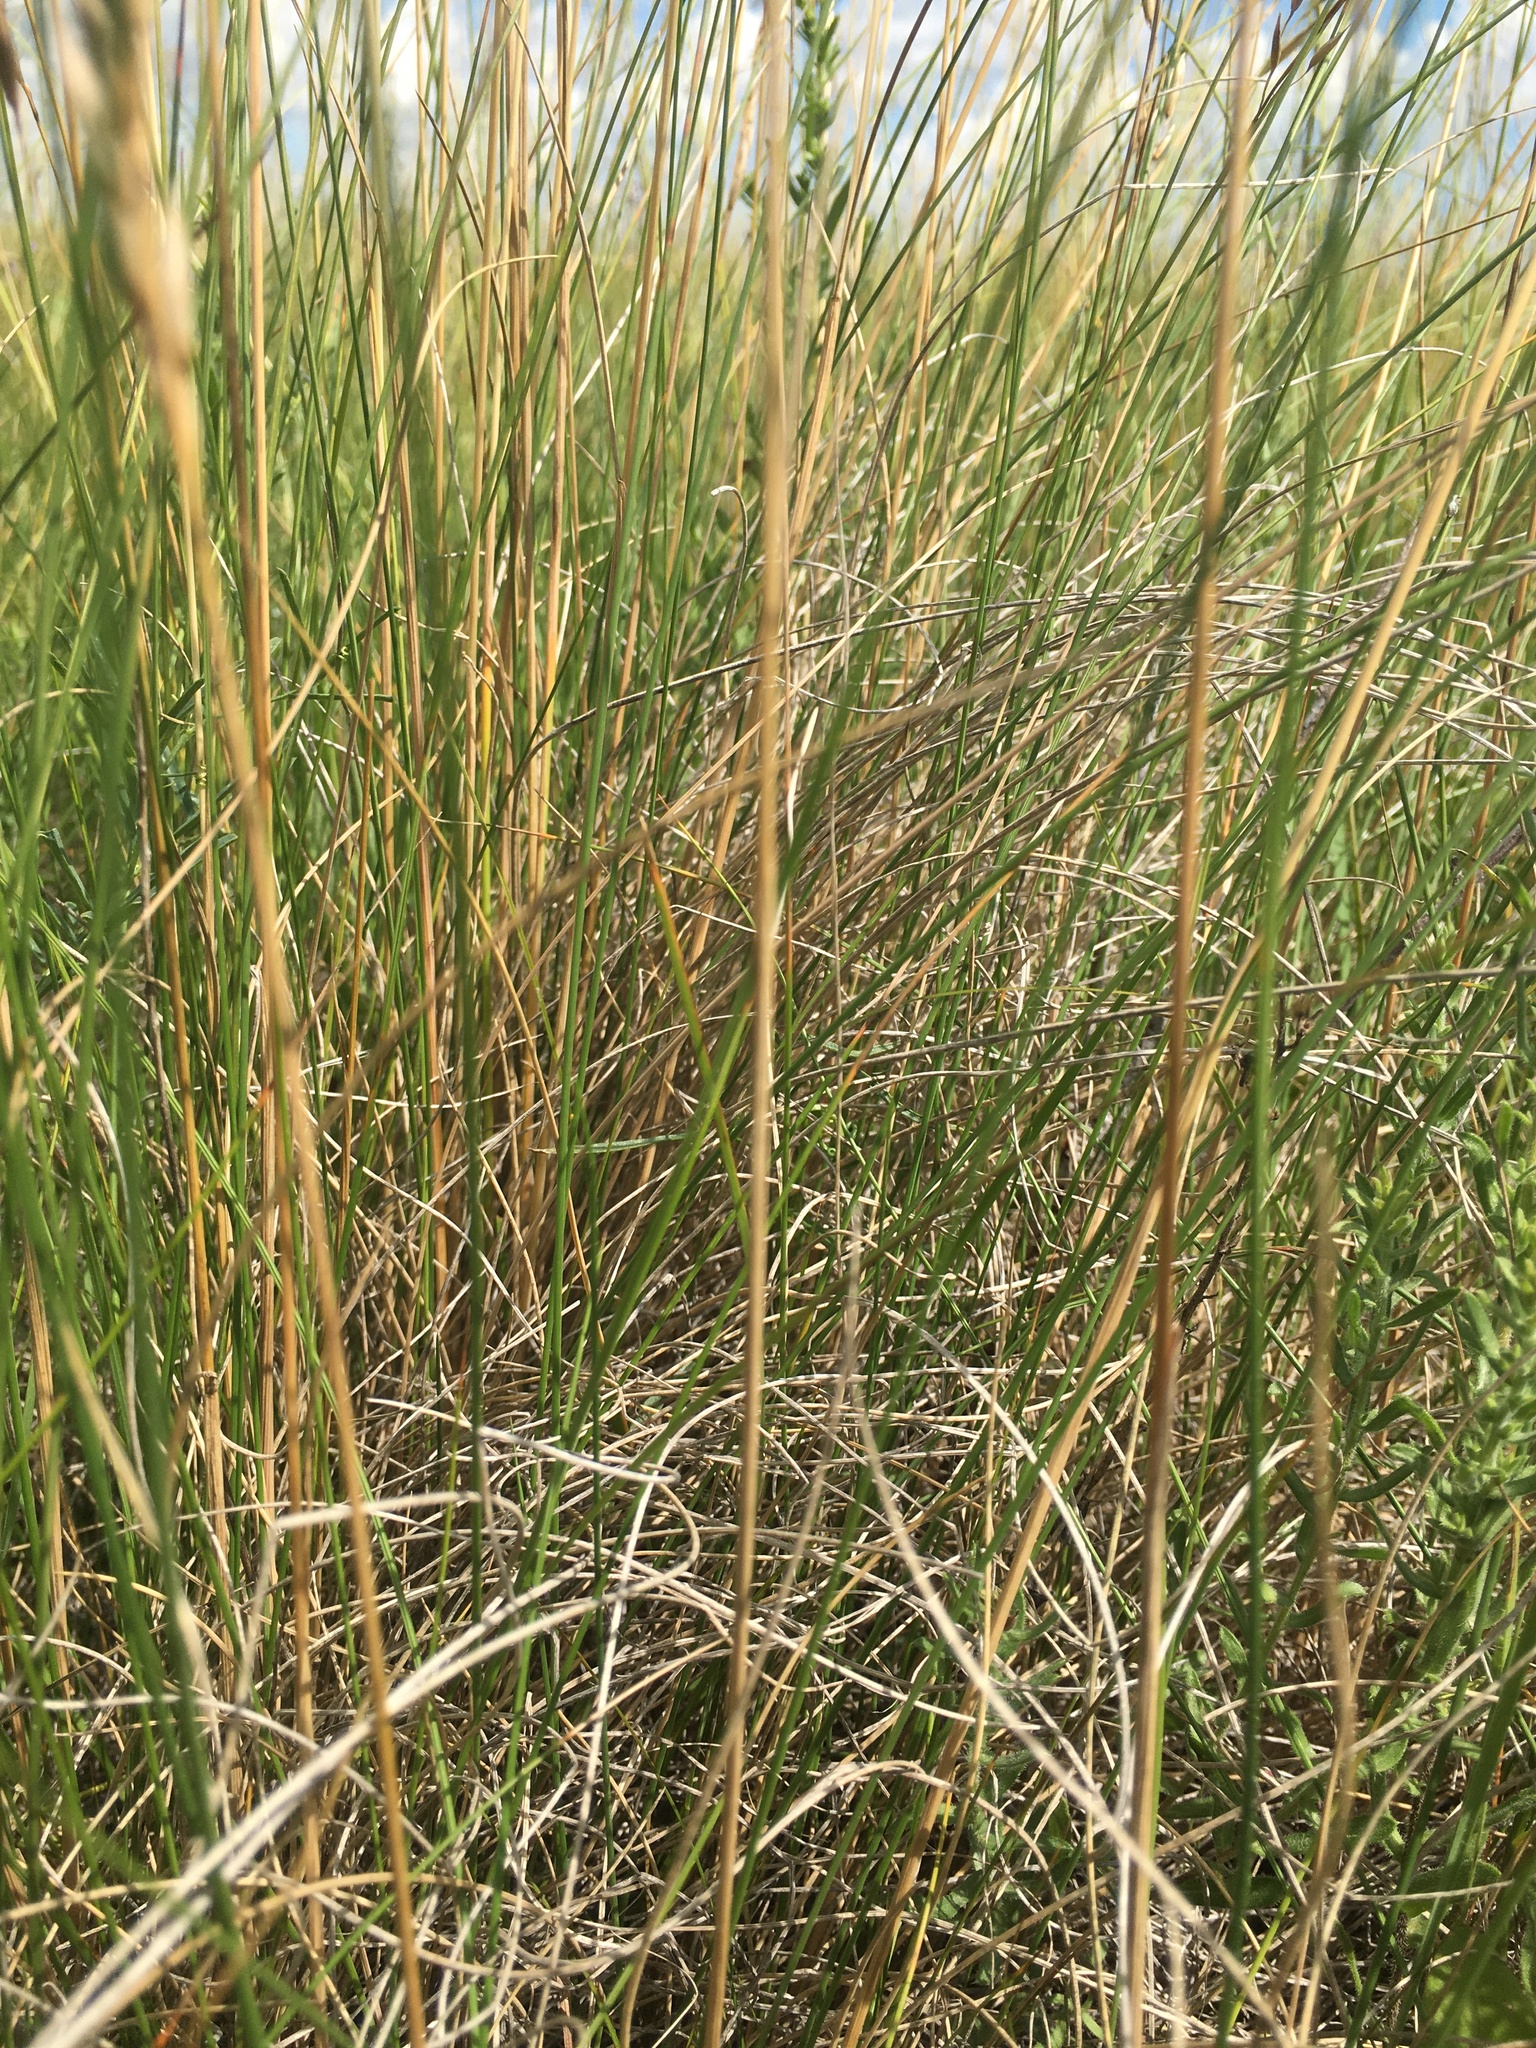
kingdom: Plantae
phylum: Tracheophyta
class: Liliopsida
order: Poales
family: Poaceae
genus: Festuca
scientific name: Festuca hallii
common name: Hall's fescue
